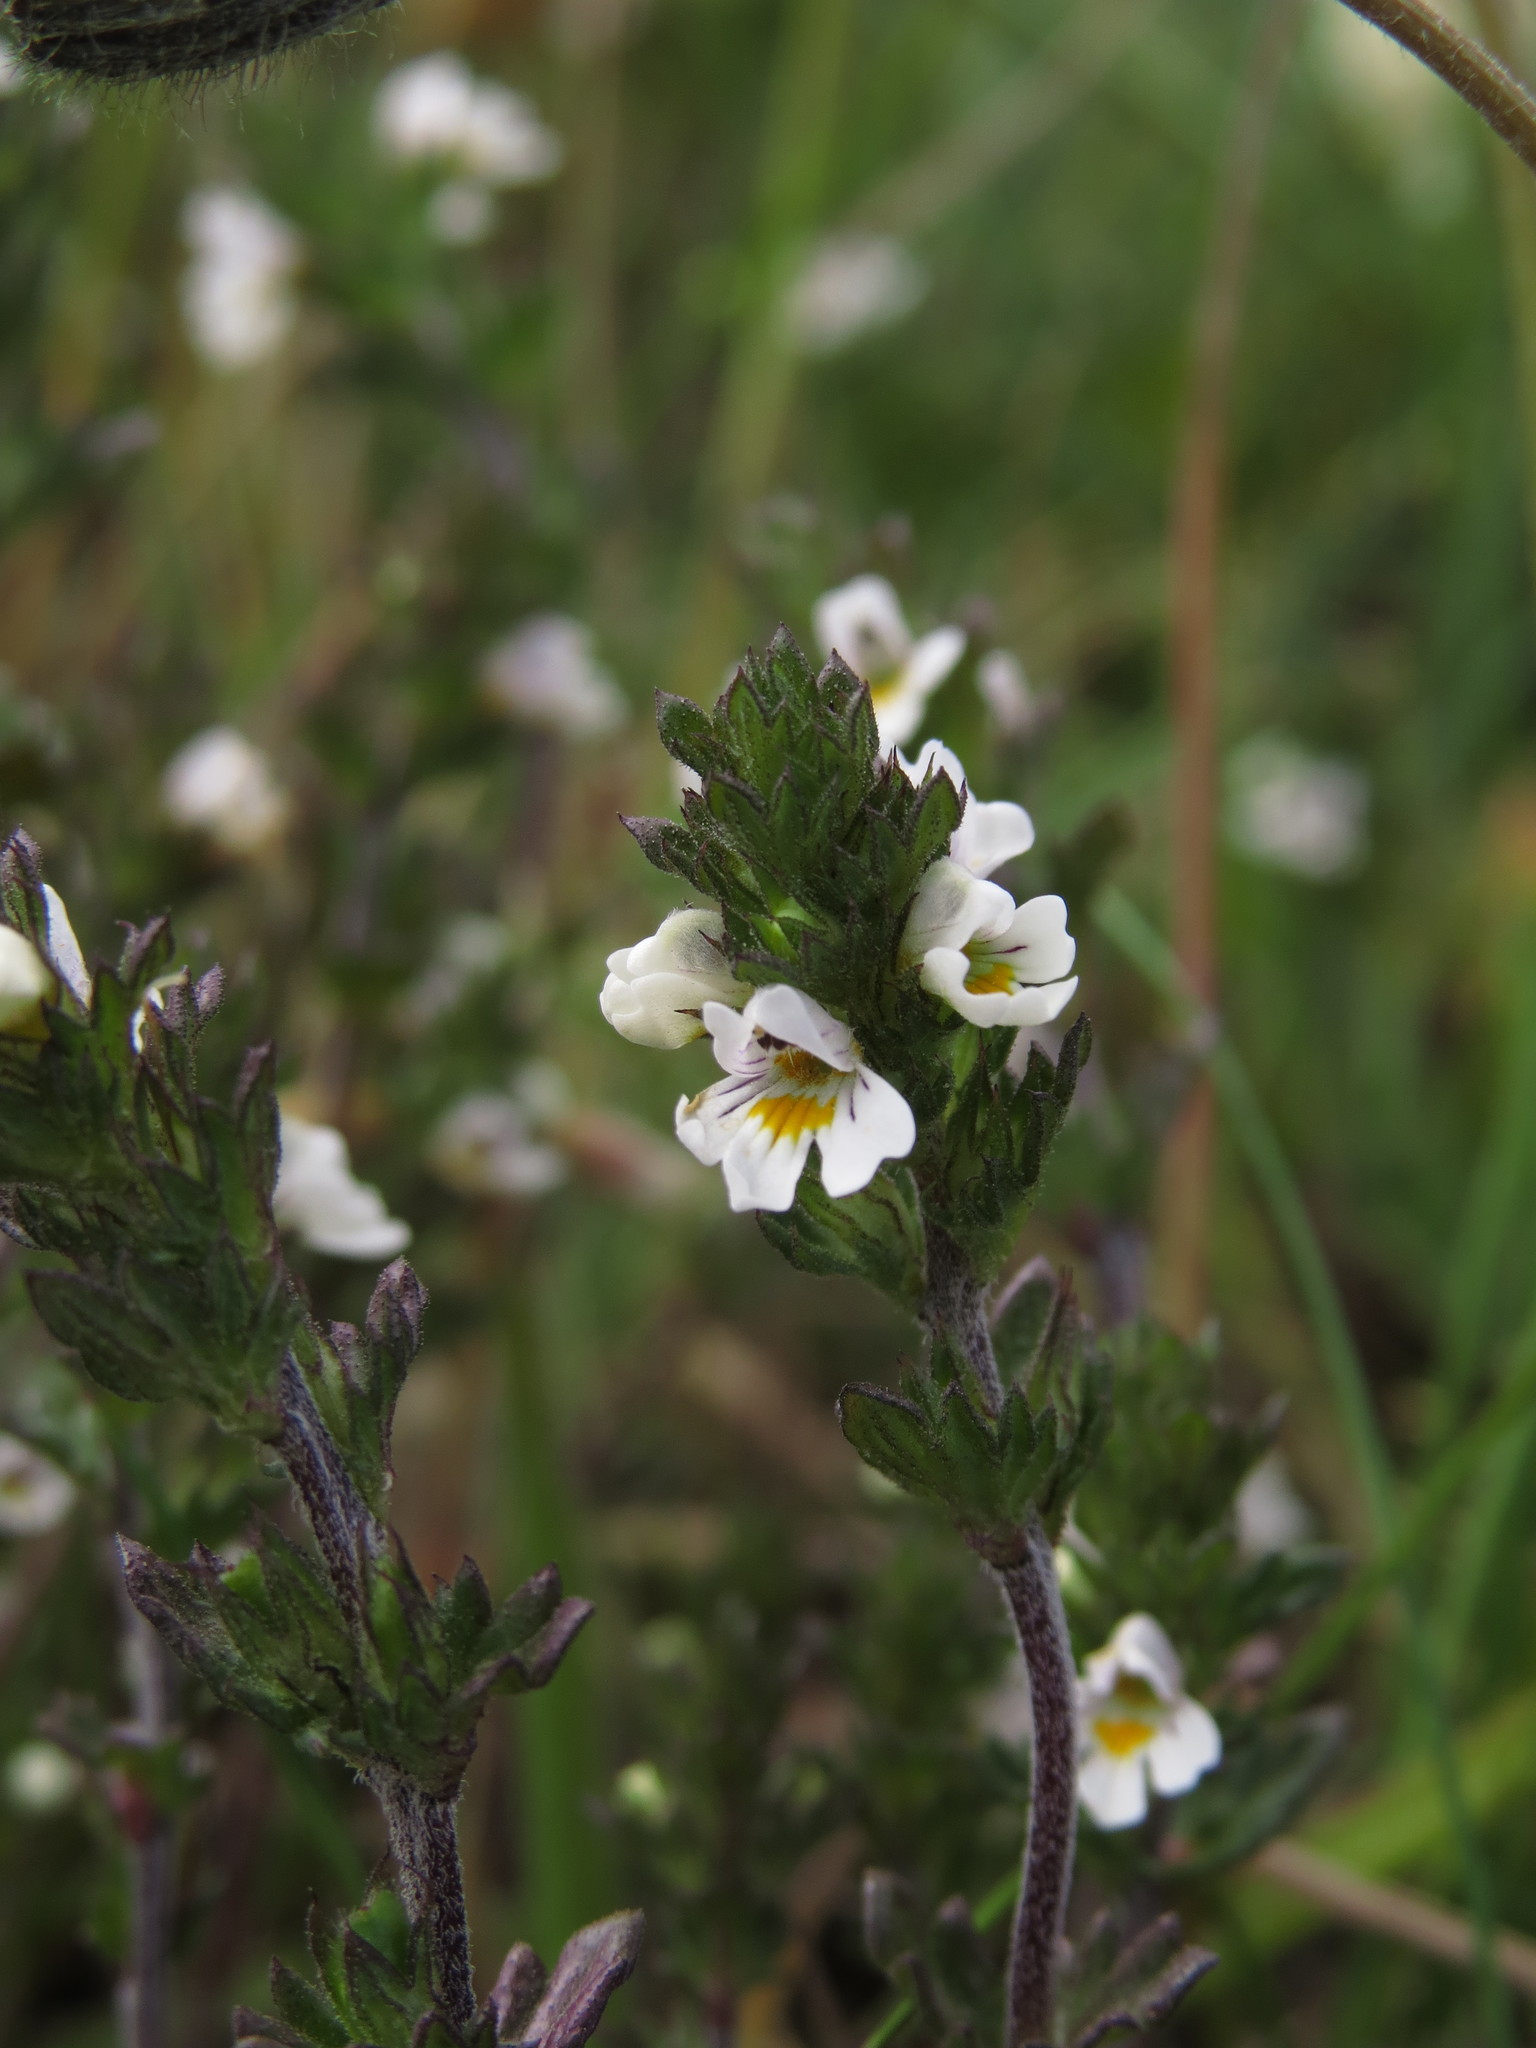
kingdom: Plantae
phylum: Tracheophyta
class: Magnoliopsida
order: Lamiales
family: Orobanchaceae
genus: Euphrasia
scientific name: Euphrasia officinalis
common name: Eyebright
